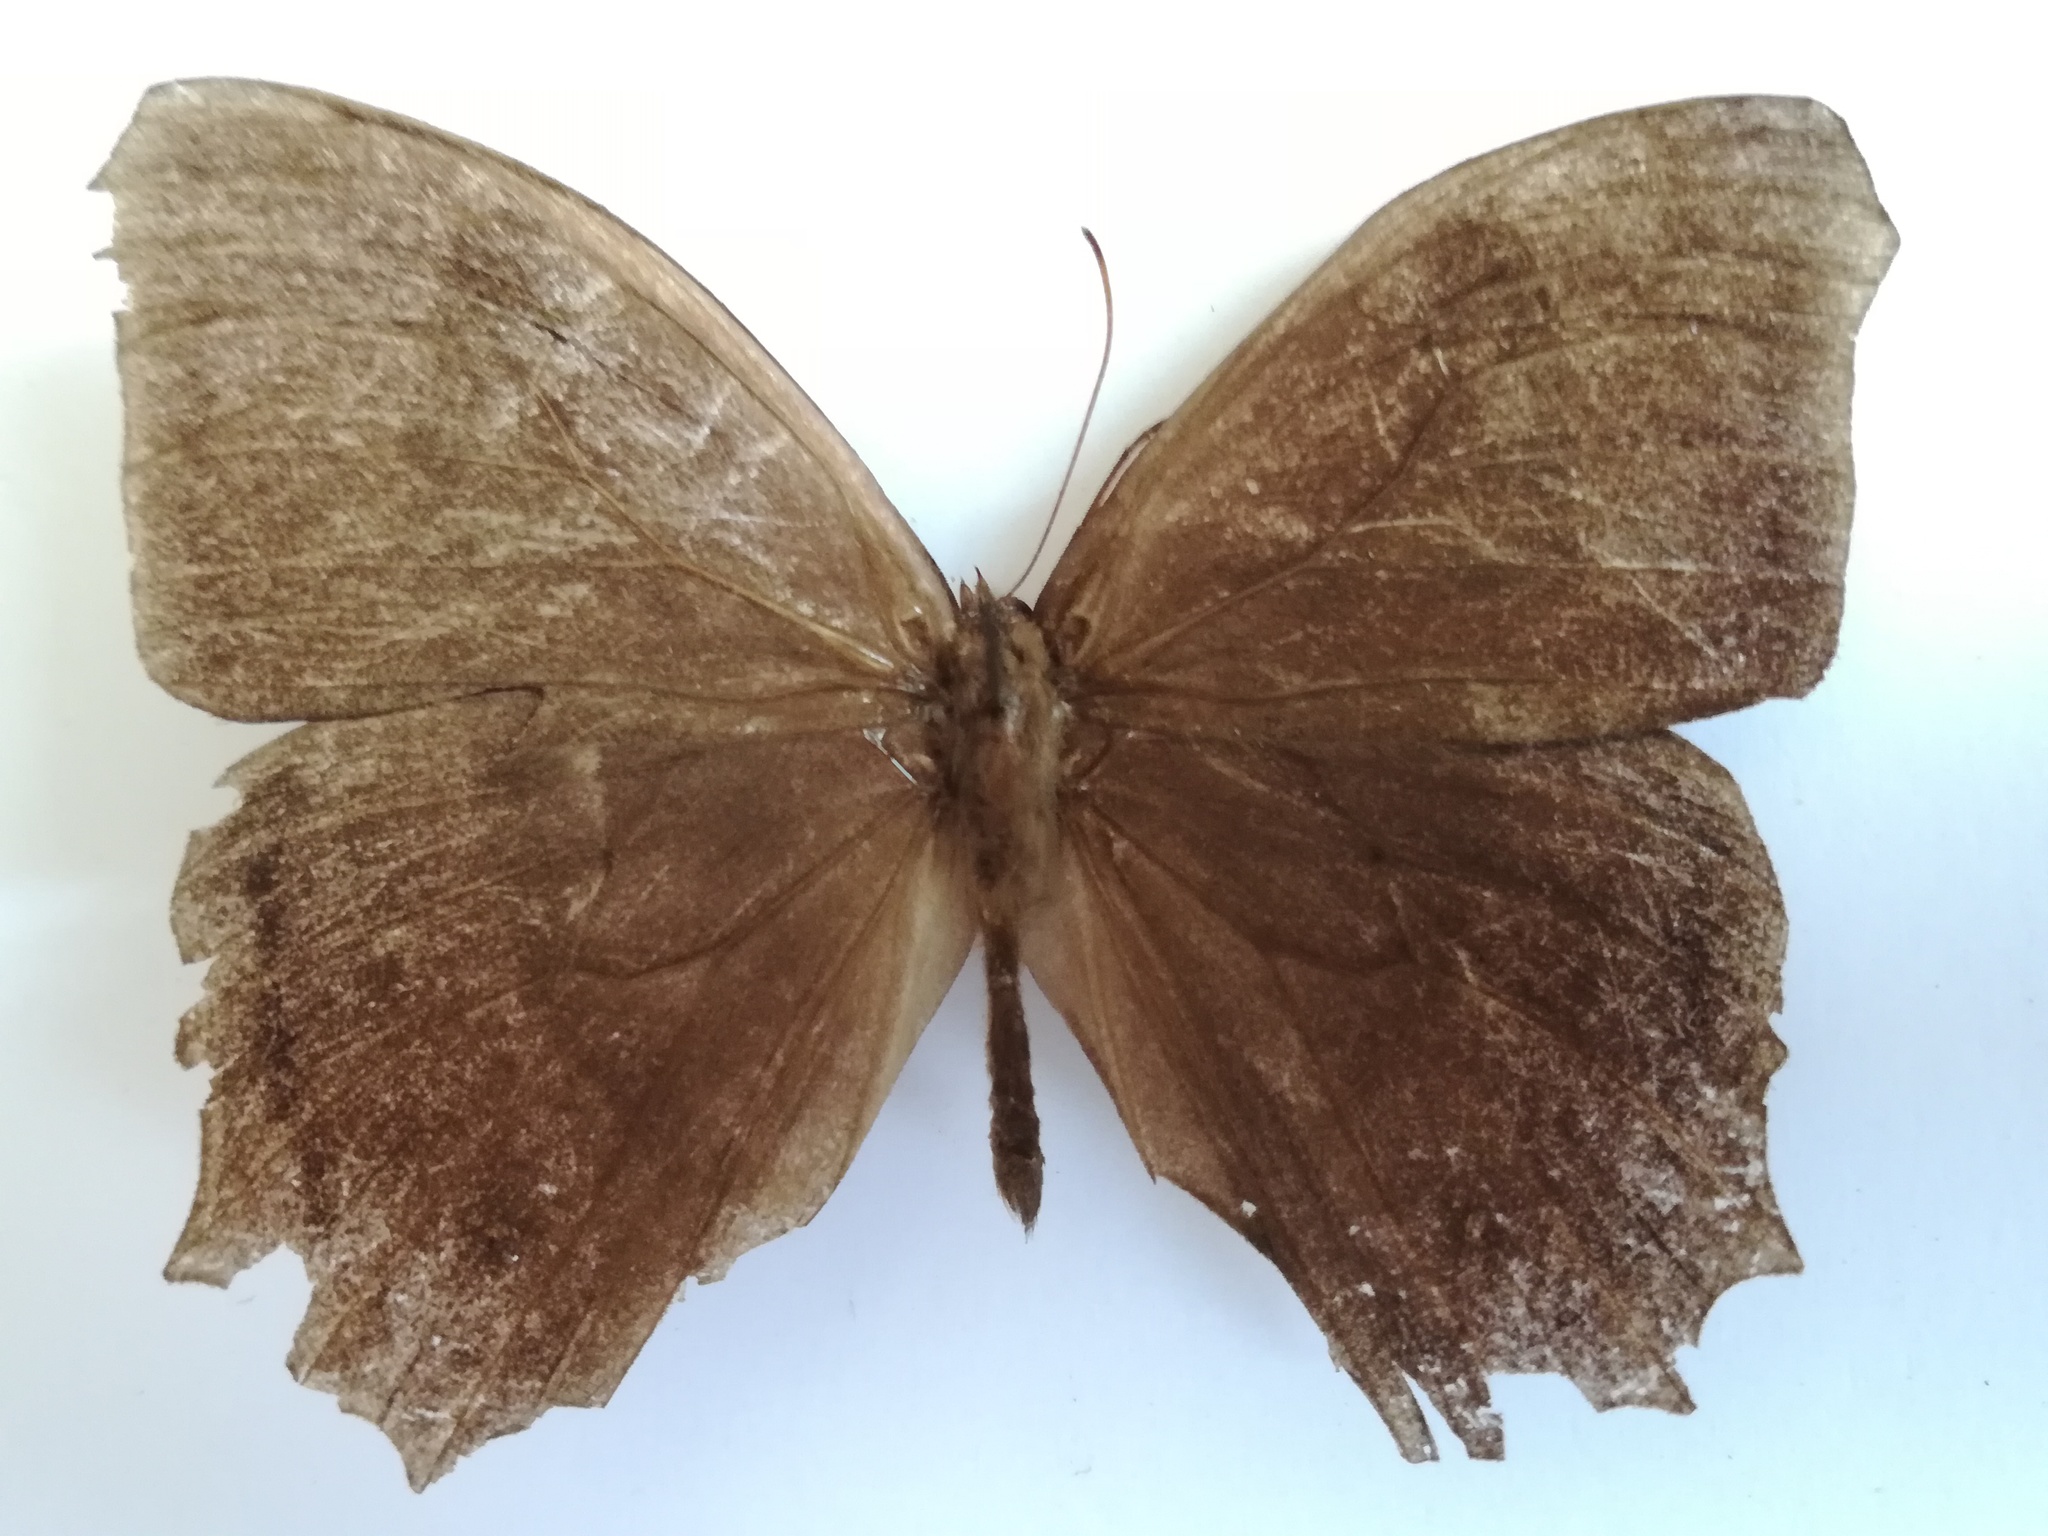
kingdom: Animalia
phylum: Arthropoda
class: Insecta
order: Lepidoptera
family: Nymphalidae
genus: Taygetis
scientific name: Taygetis inconspicua
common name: Inconspicuous satyr
